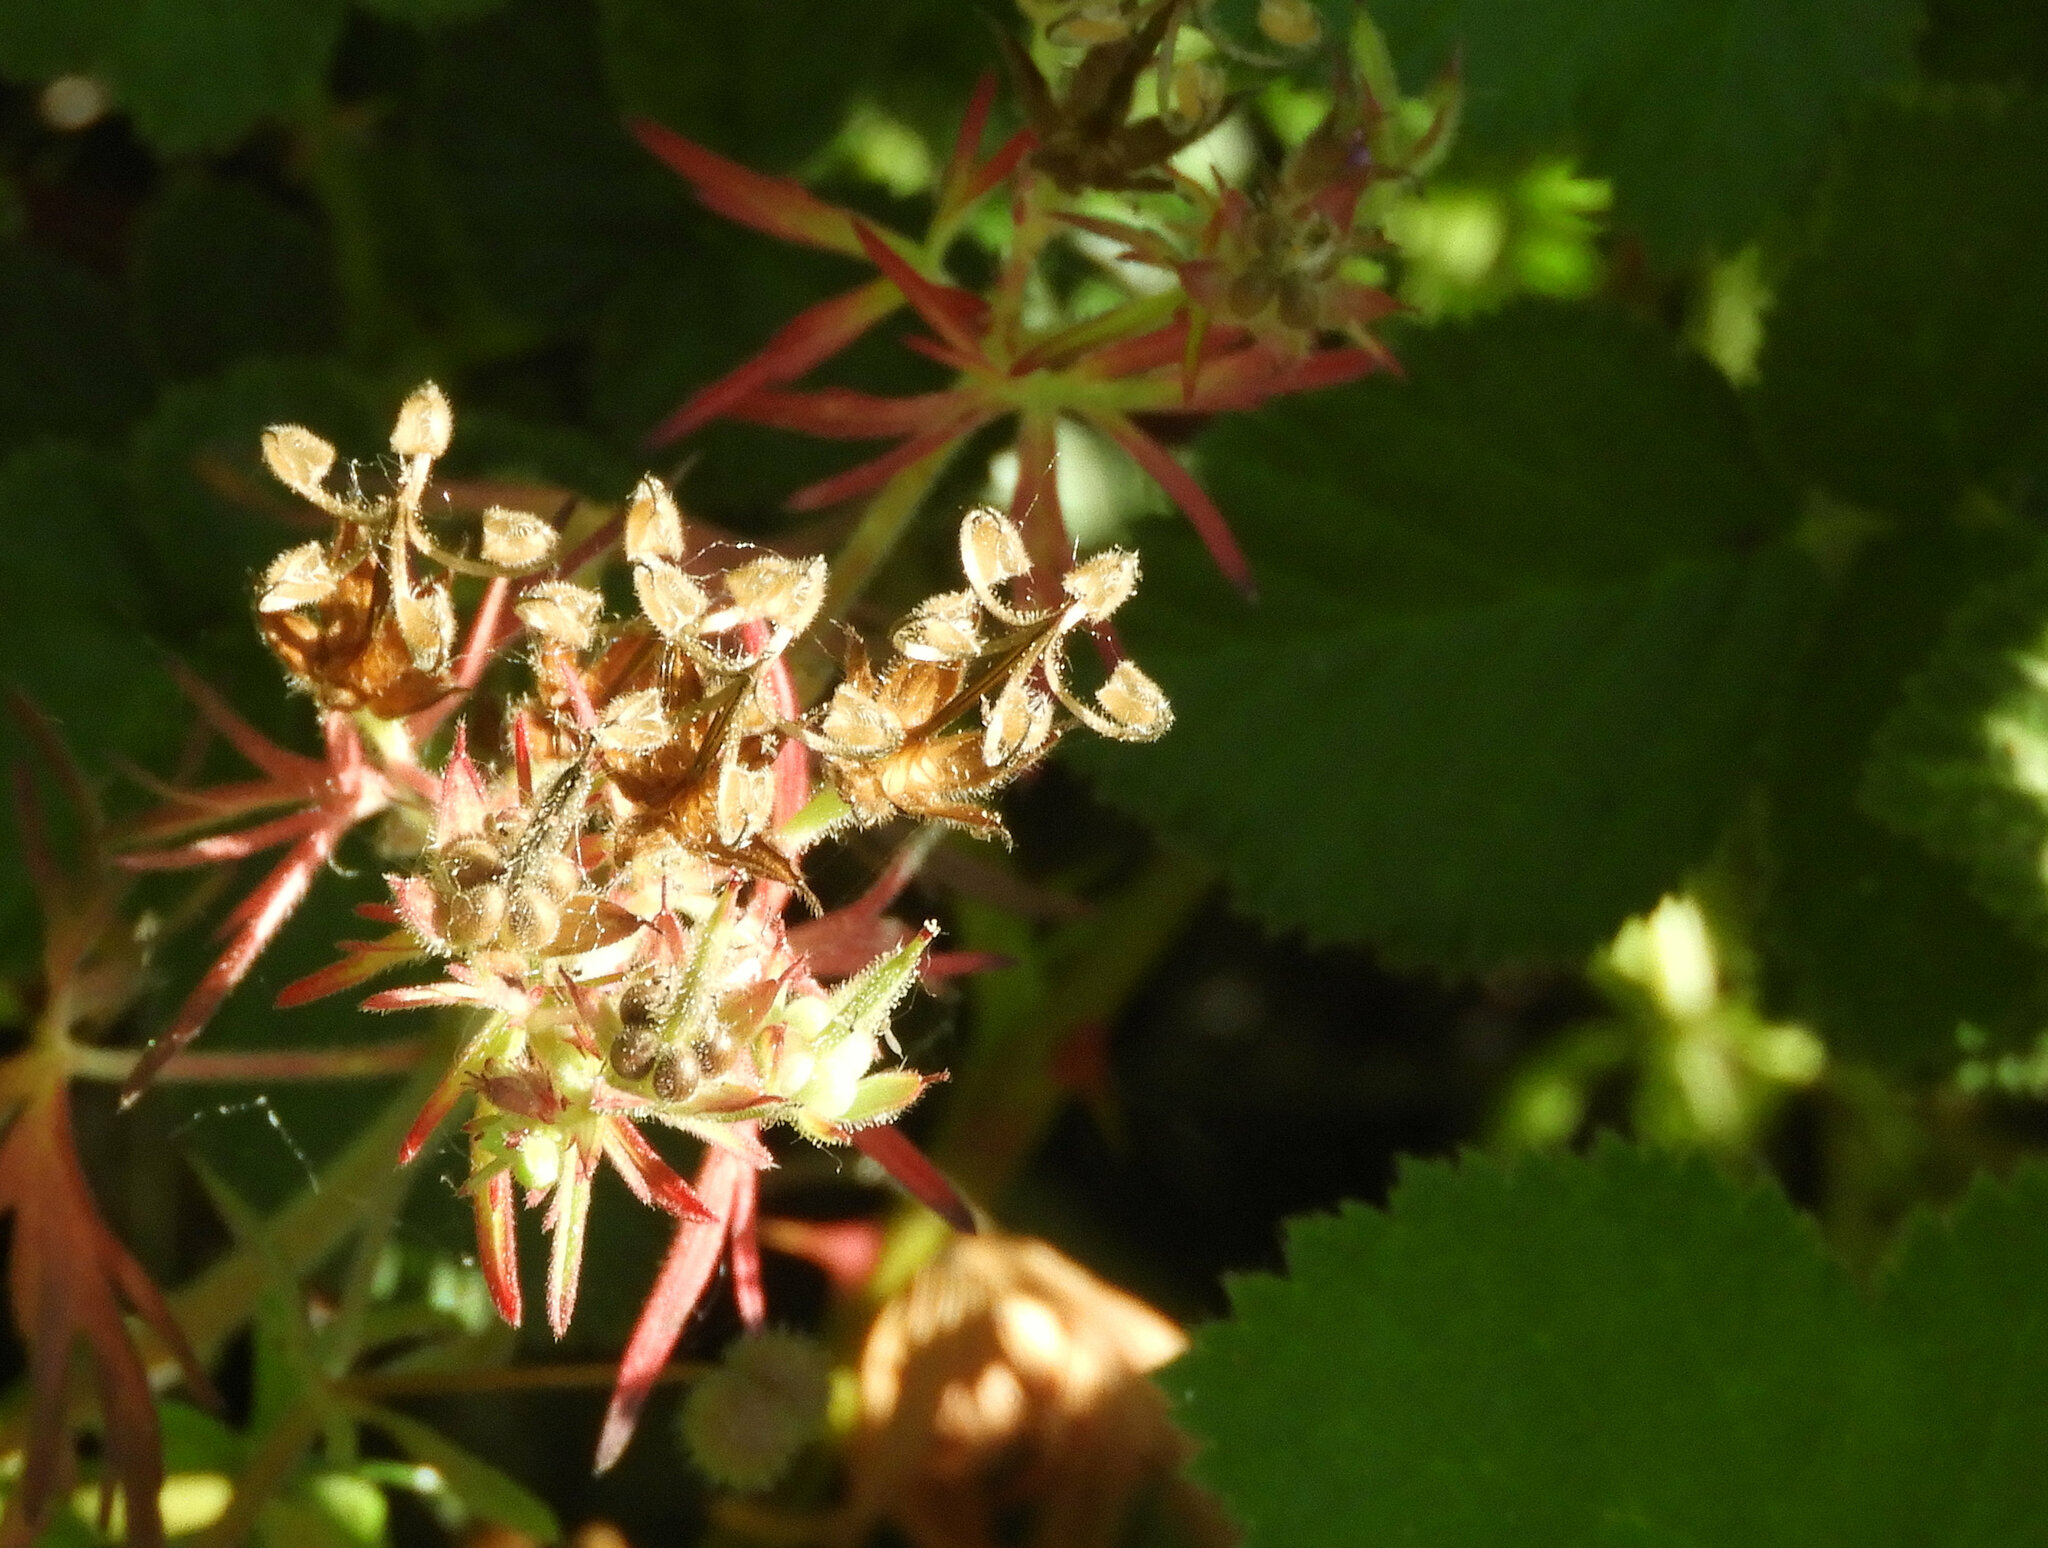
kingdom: Plantae
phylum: Tracheophyta
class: Magnoliopsida
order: Geraniales
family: Geraniaceae
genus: Geranium
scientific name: Geranium dissectum
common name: Cut-leaved crane's-bill
